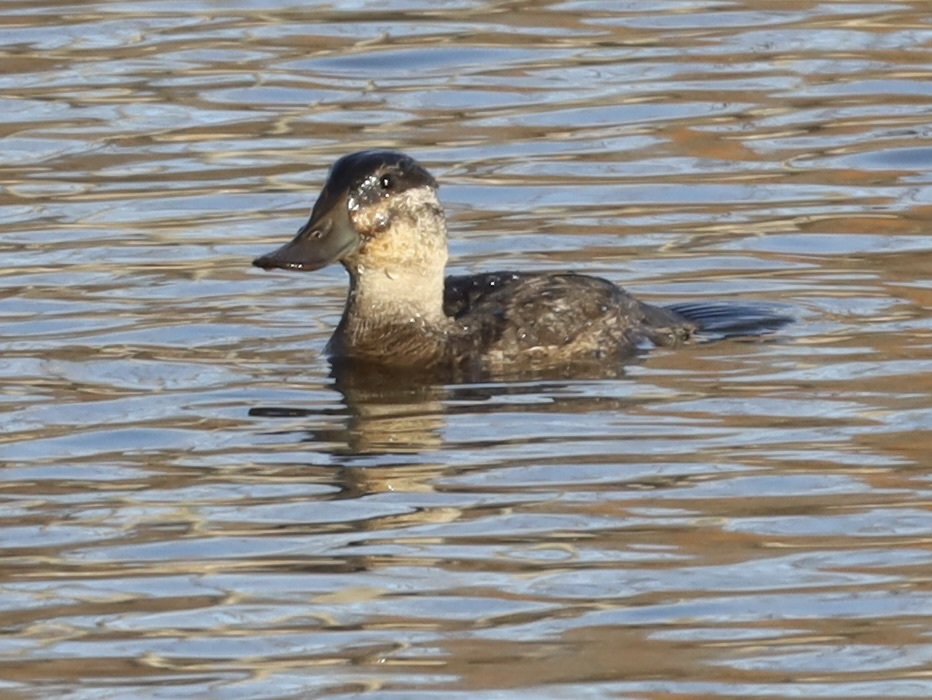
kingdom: Animalia
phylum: Chordata
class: Aves
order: Anseriformes
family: Anatidae
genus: Oxyura
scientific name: Oxyura jamaicensis
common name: Ruddy duck
